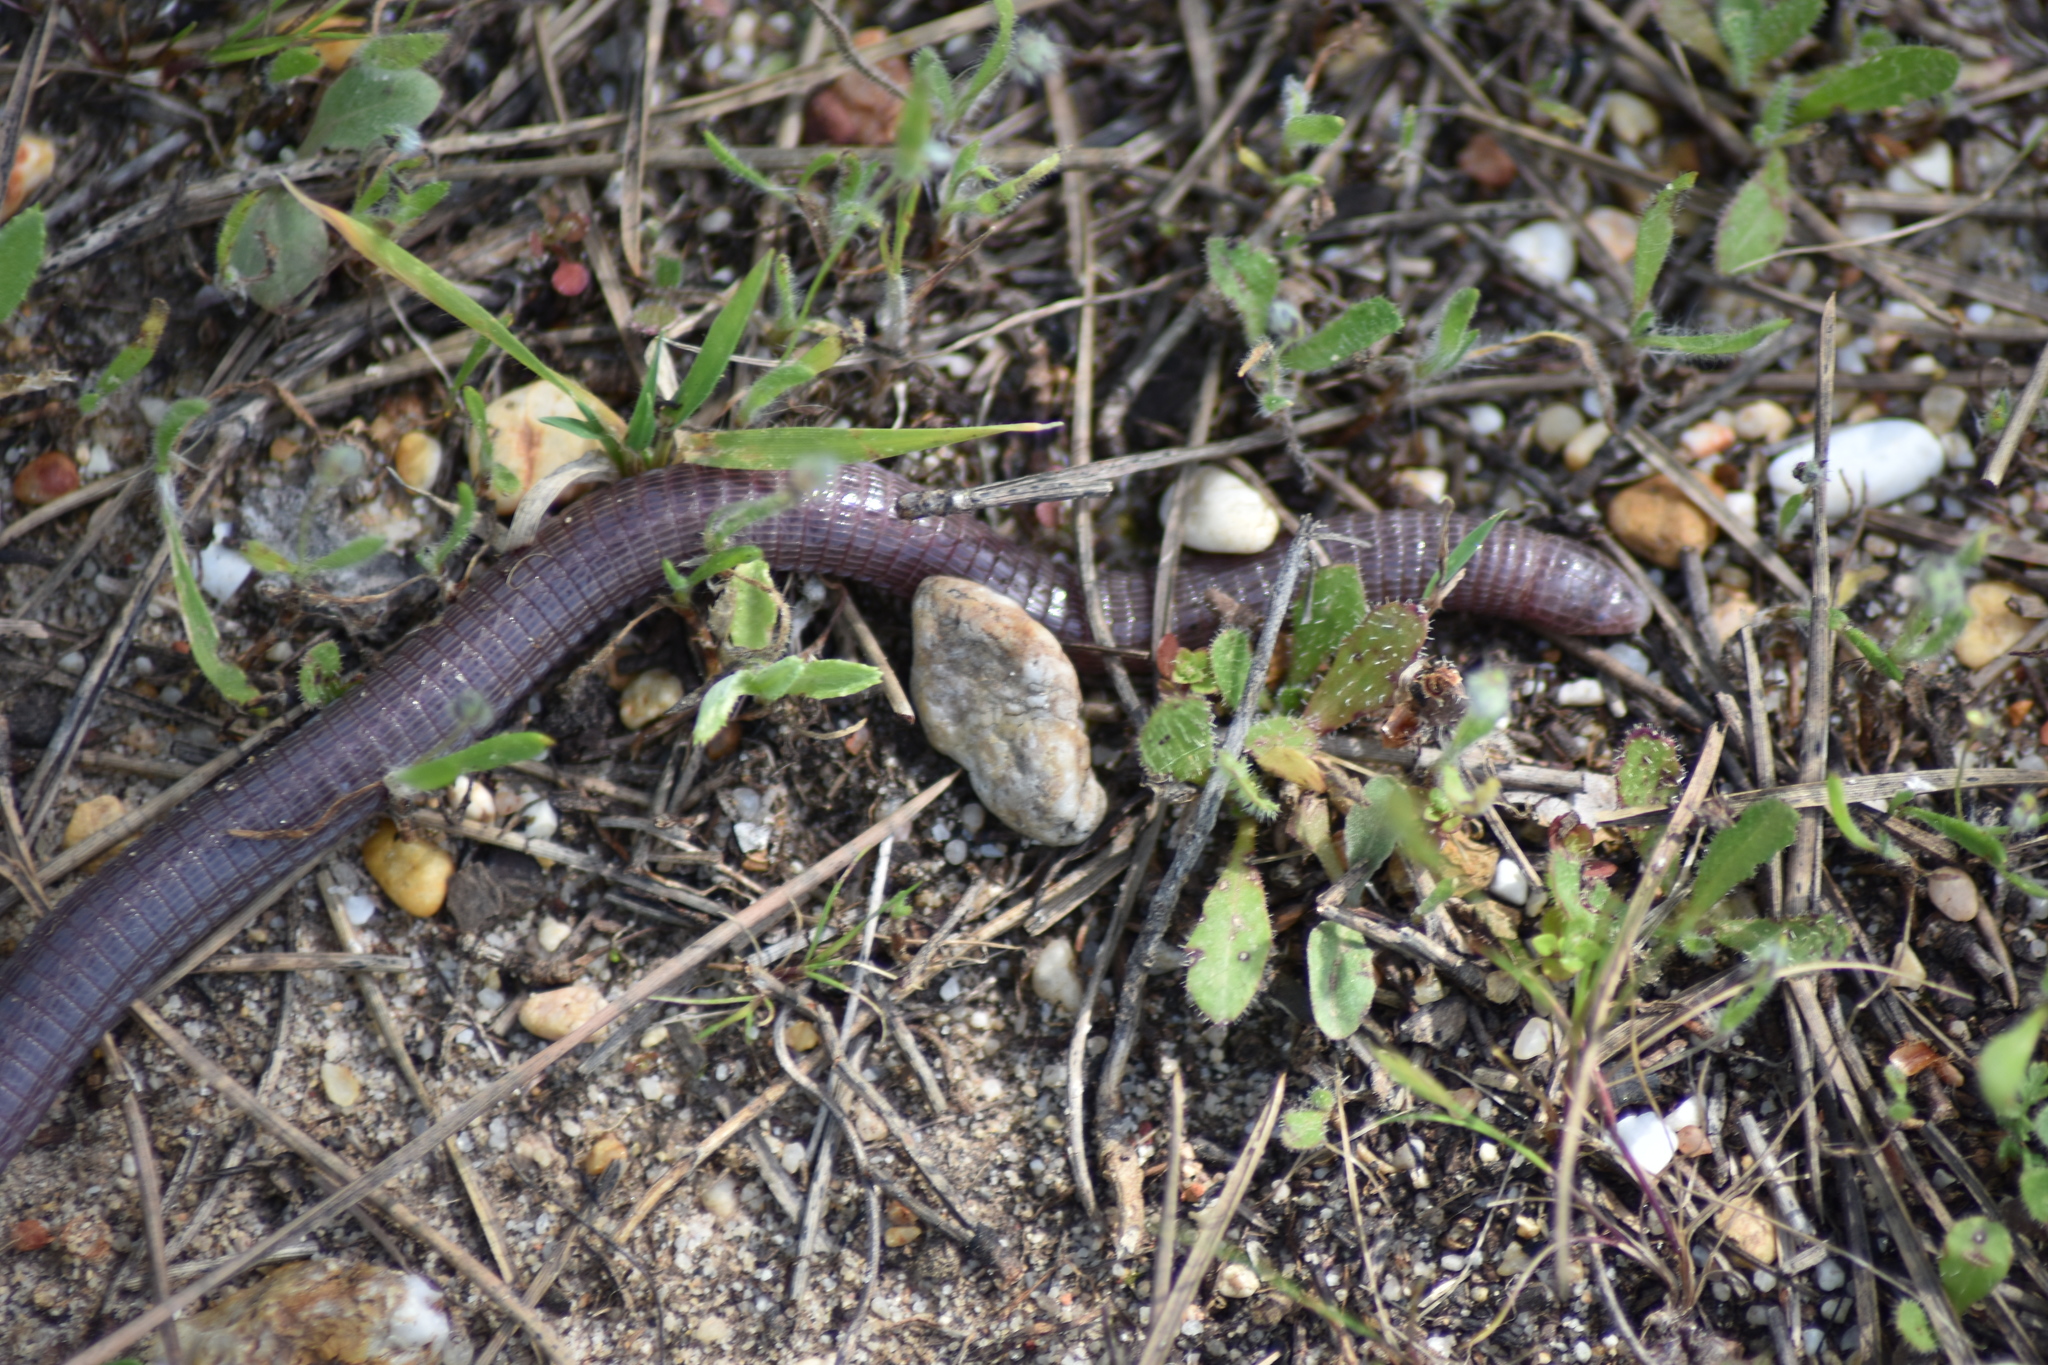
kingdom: Animalia
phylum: Chordata
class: Squamata
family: Blanidae
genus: Blanus
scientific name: Blanus cinereus
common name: Mediterranean worm lizard
